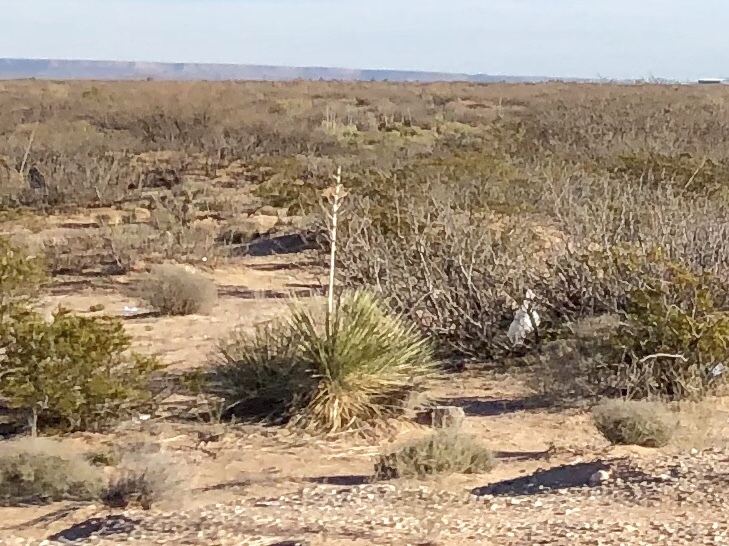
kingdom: Plantae
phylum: Tracheophyta
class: Liliopsida
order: Asparagales
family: Asparagaceae
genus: Yucca
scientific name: Yucca elata
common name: Palmella
